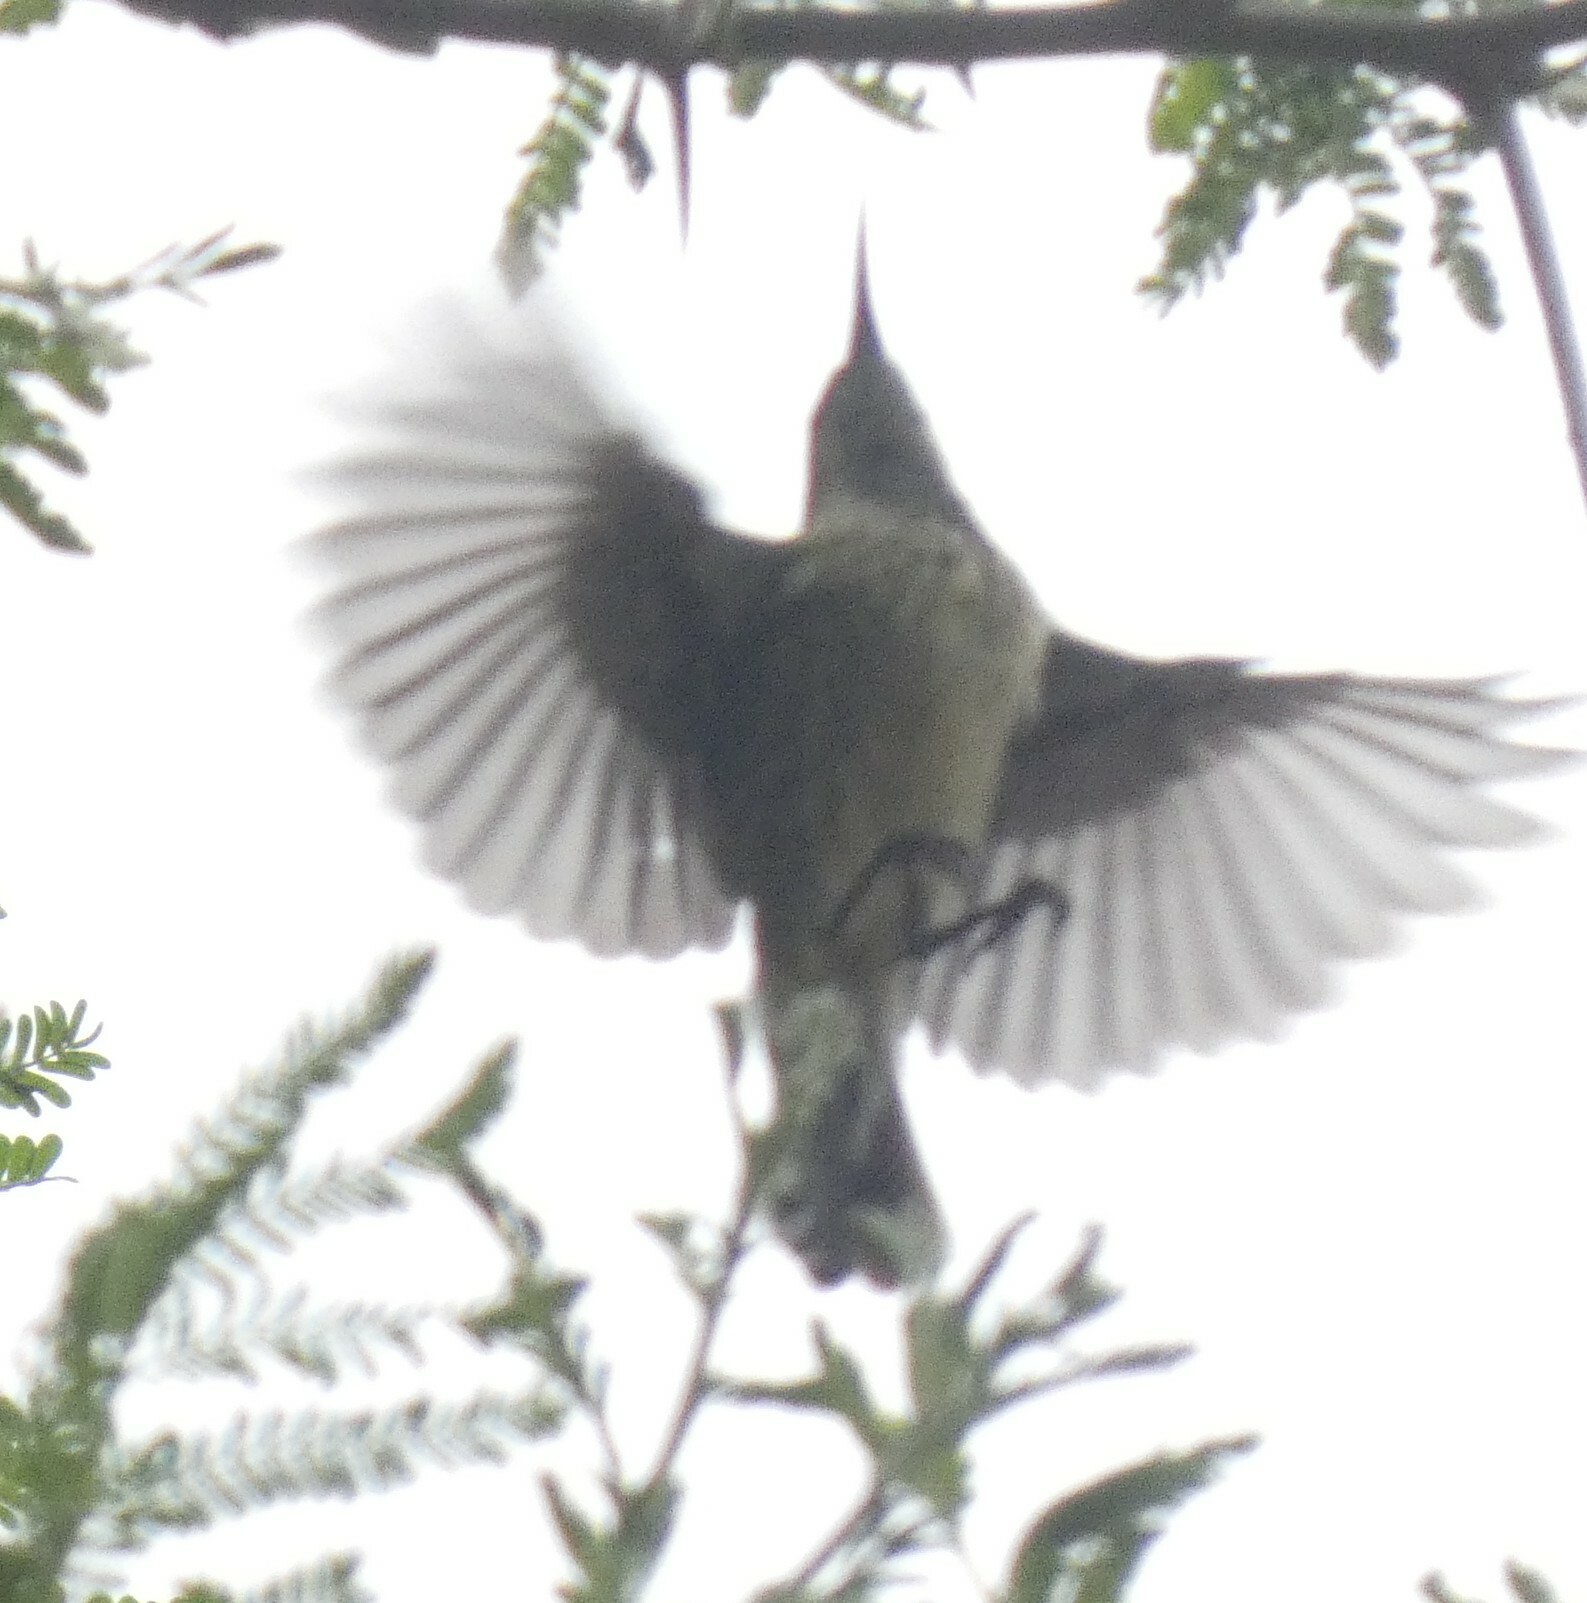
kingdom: Animalia
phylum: Chordata
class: Aves
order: Passeriformes
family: Nectariniidae
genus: Cinnyris
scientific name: Cinnyris mariquensis
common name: Marico sunbird
